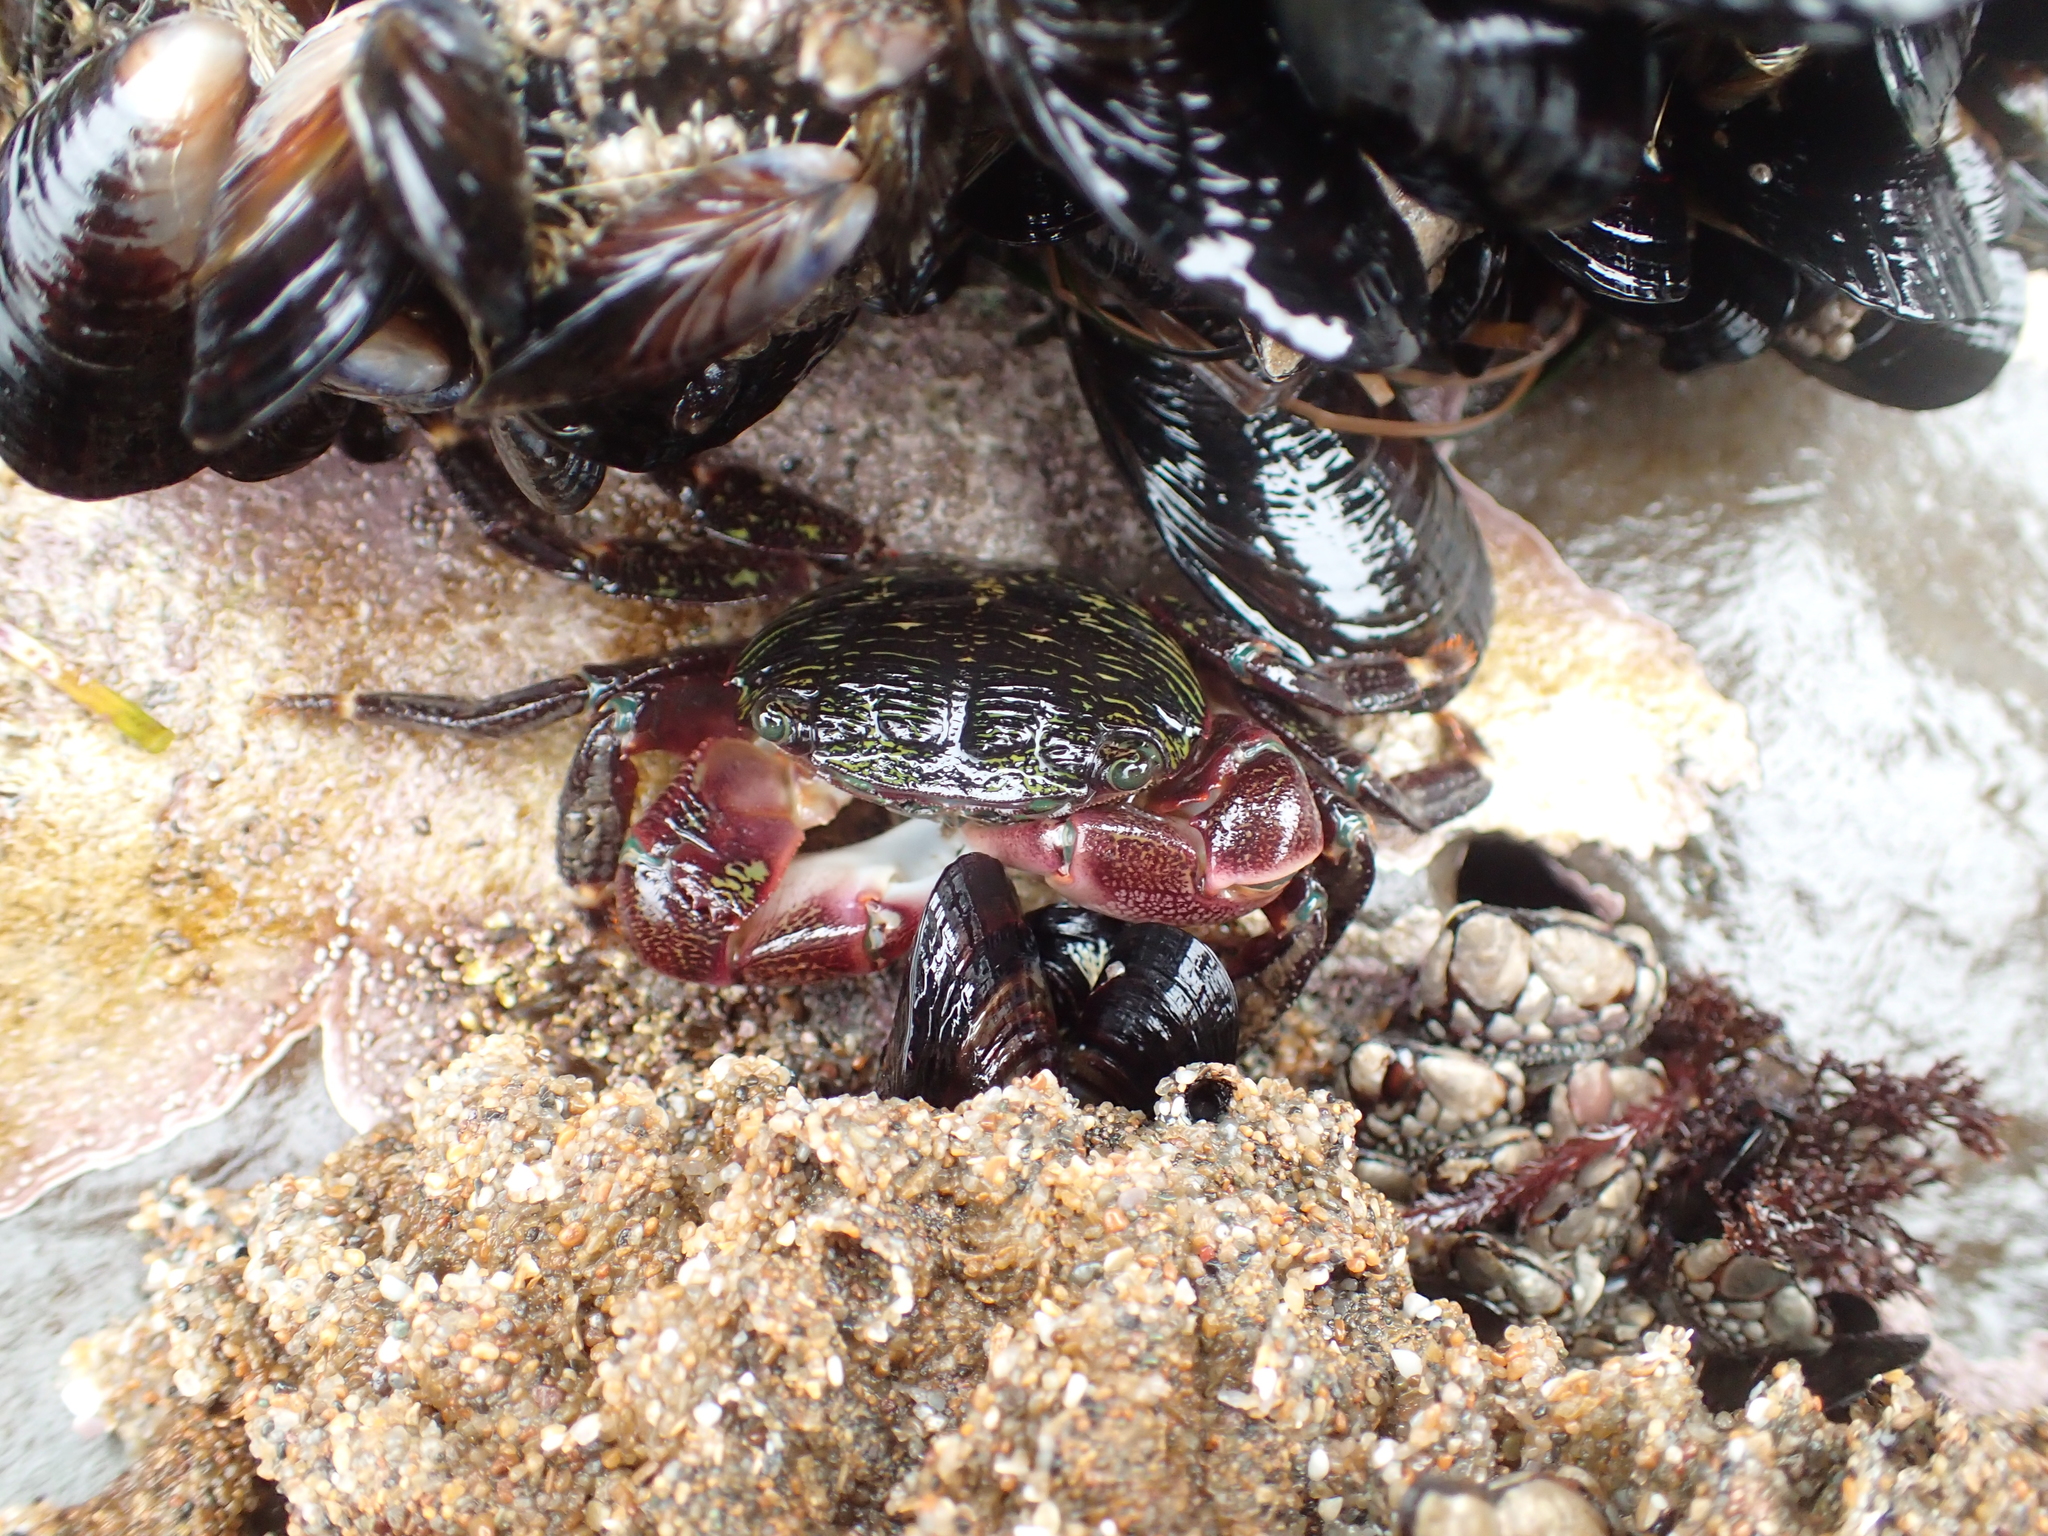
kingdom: Animalia
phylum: Arthropoda
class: Malacostraca
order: Decapoda
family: Grapsidae
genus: Pachygrapsus
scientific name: Pachygrapsus crassipes
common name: Striped shore crab
